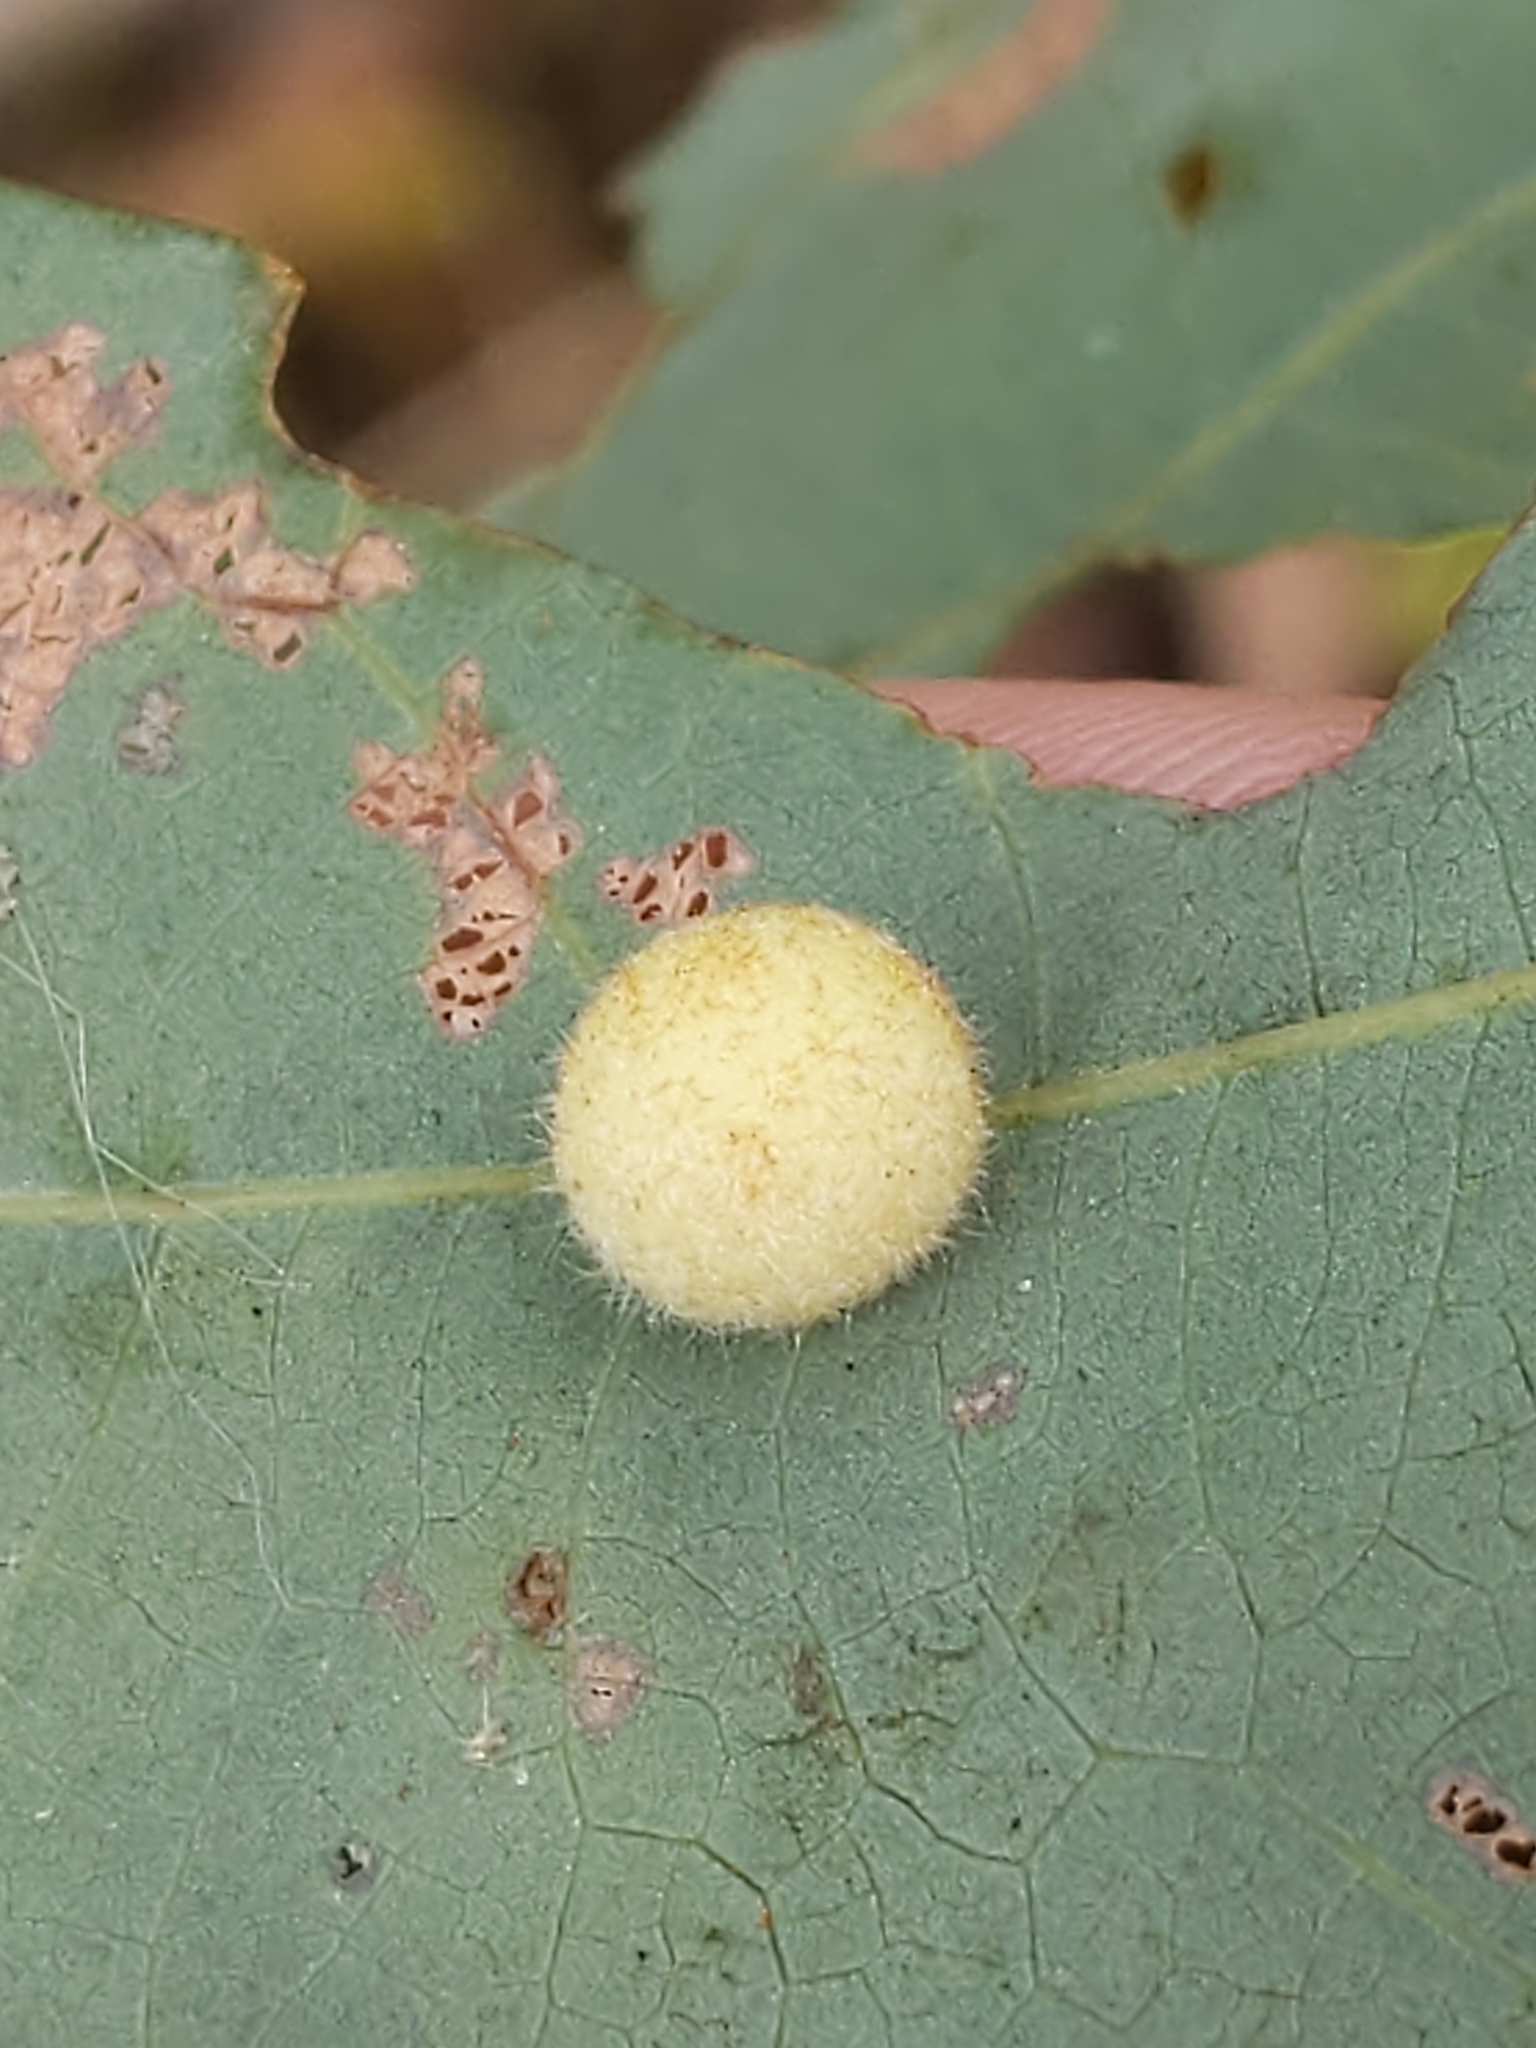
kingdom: Animalia
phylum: Arthropoda
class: Insecta
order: Hymenoptera
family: Cynipidae
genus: Philonix
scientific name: Philonix fulvicollis
